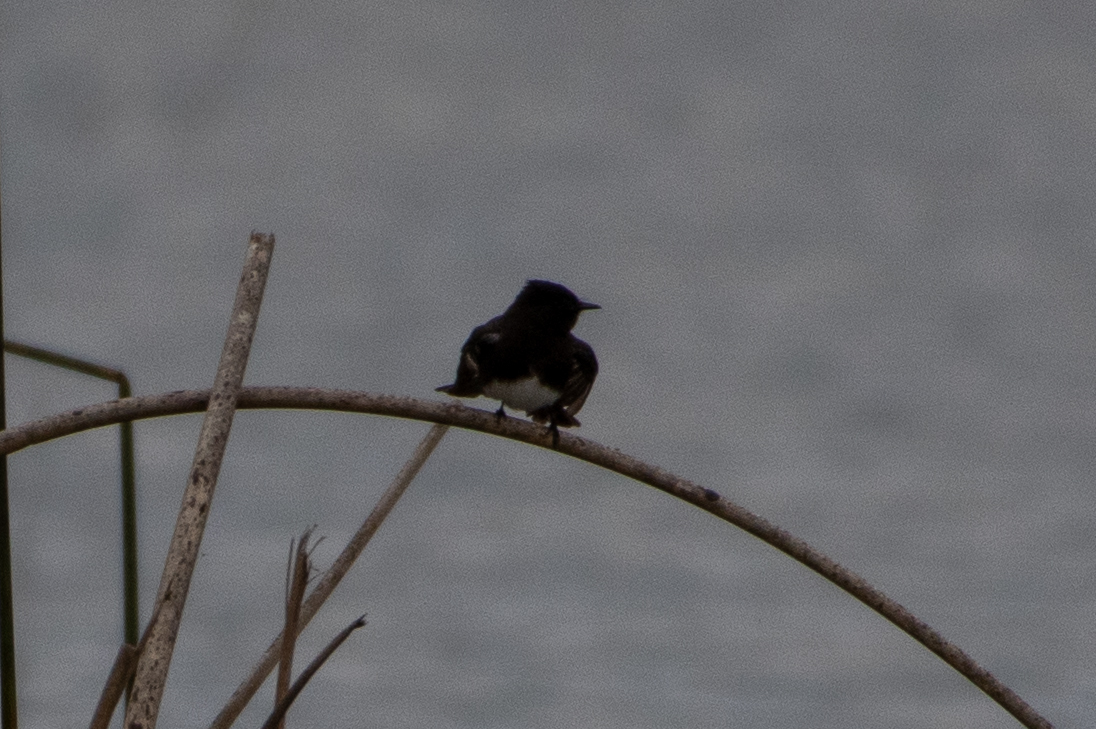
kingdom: Animalia
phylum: Chordata
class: Aves
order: Passeriformes
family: Tyrannidae
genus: Sayornis
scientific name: Sayornis nigricans
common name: Black phoebe
